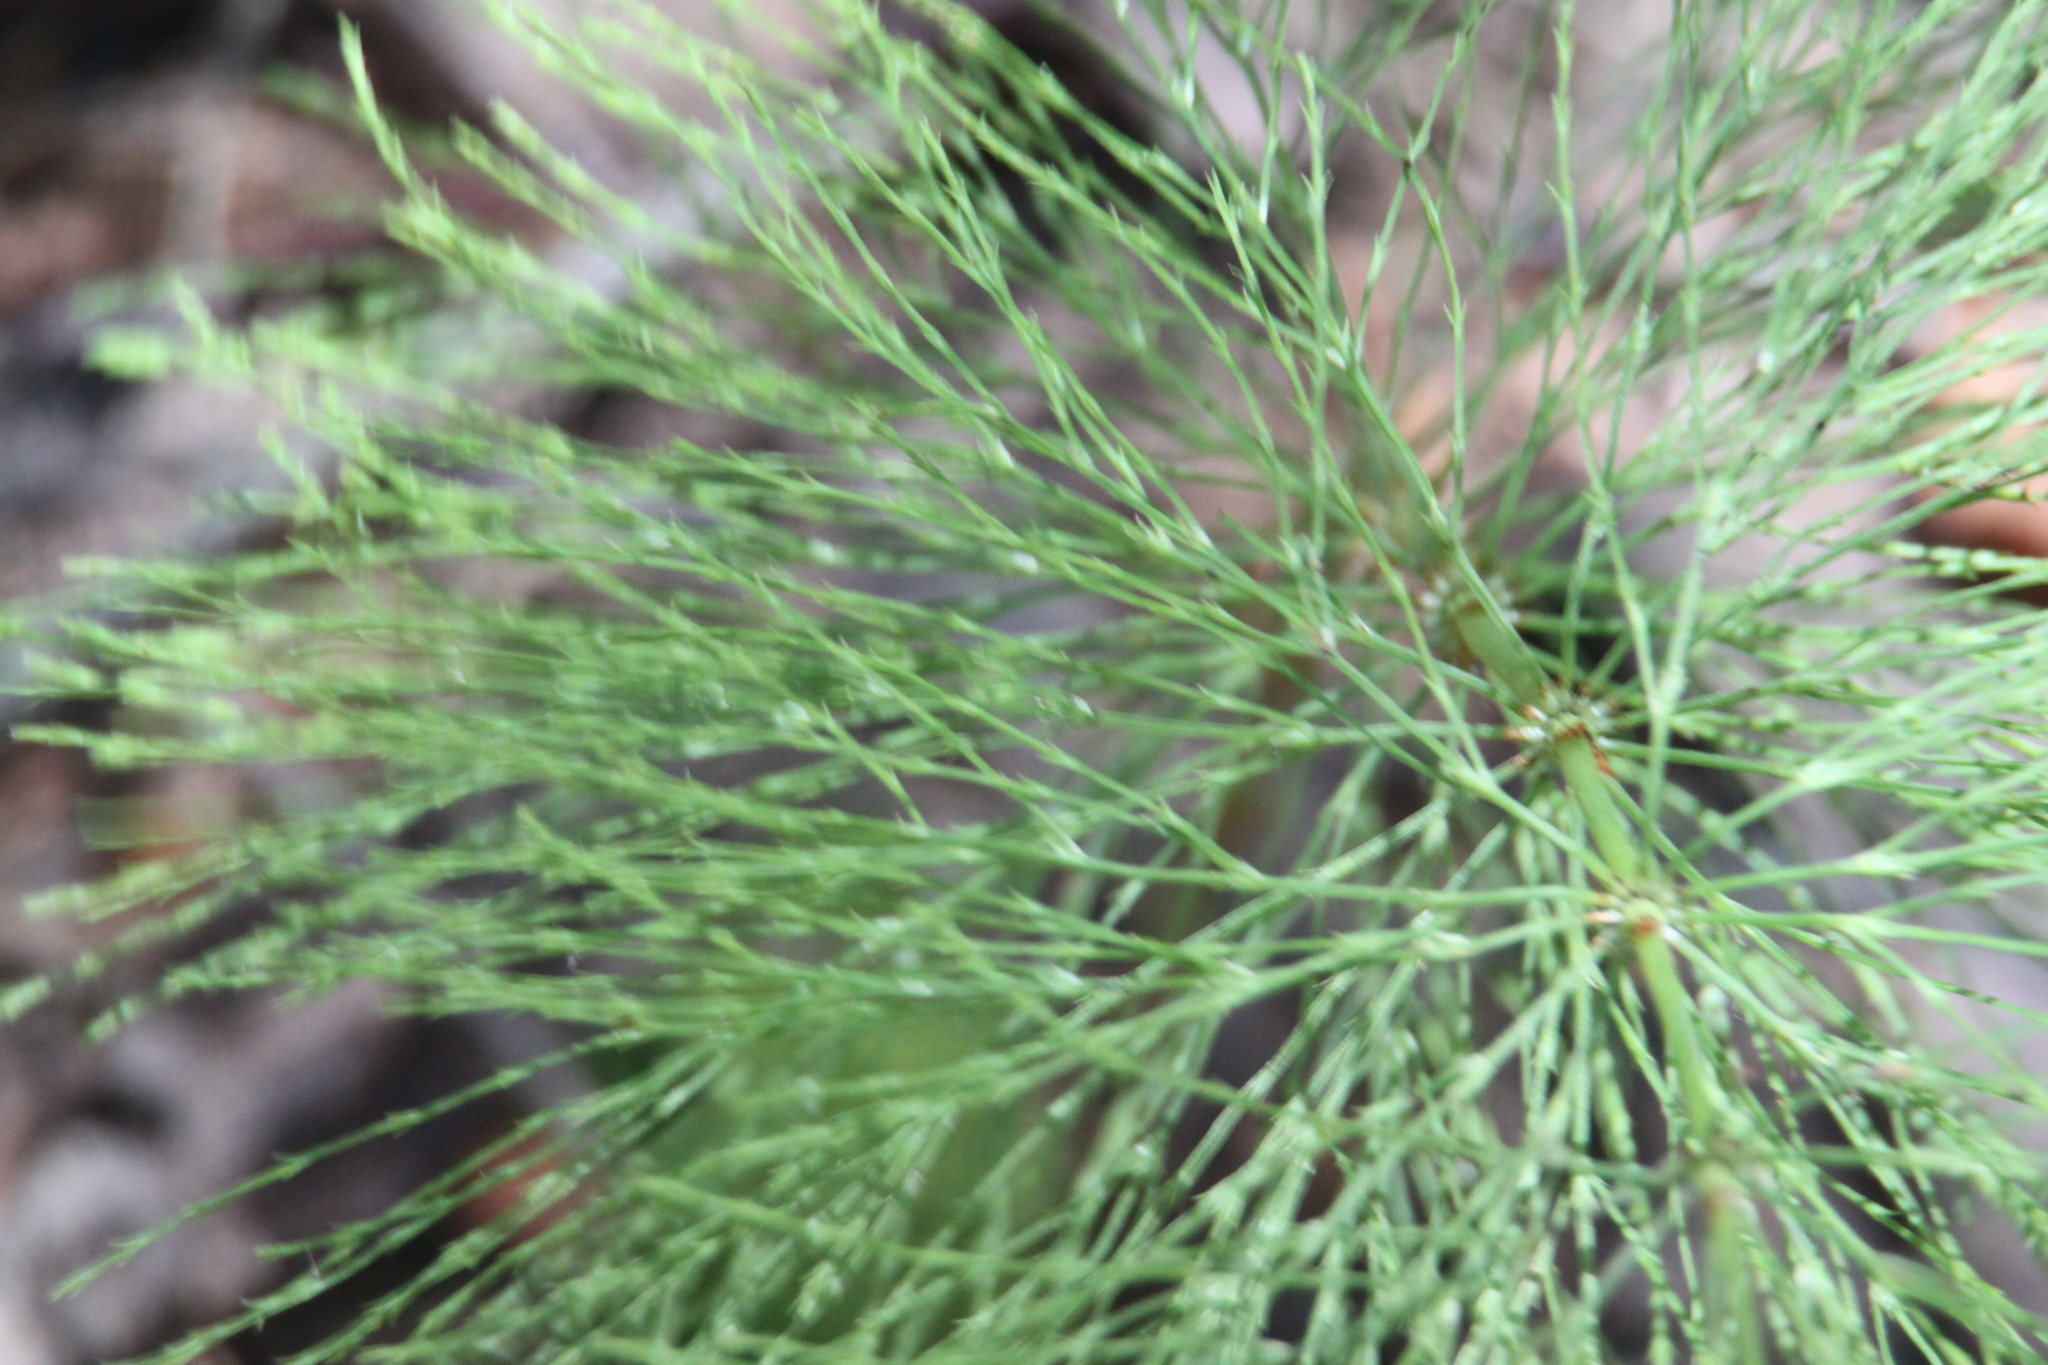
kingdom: Plantae
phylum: Tracheophyta
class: Polypodiopsida
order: Equisetales
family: Equisetaceae
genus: Equisetum
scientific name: Equisetum sylvaticum
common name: Wood horsetail
